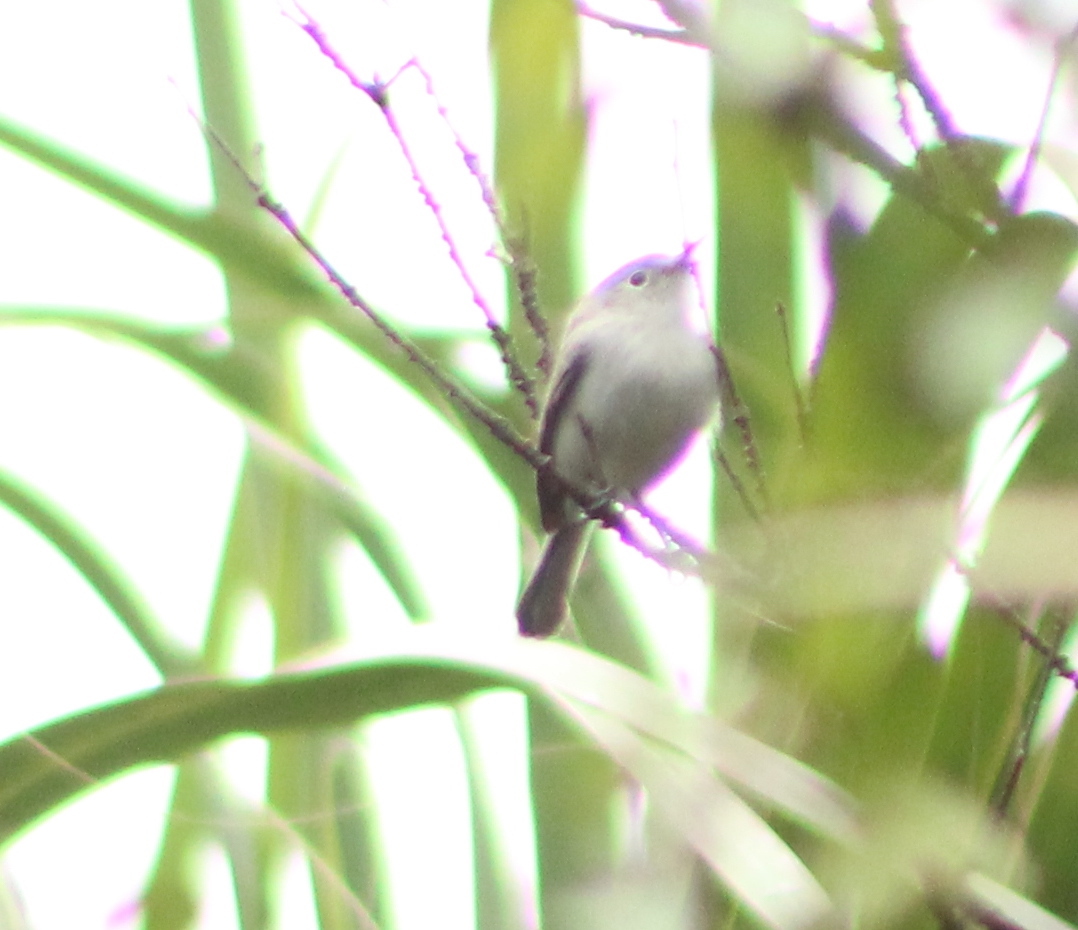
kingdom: Animalia
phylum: Chordata
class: Aves
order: Passeriformes
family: Polioptilidae
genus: Polioptila
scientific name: Polioptila caerulea
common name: Blue-gray gnatcatcher
